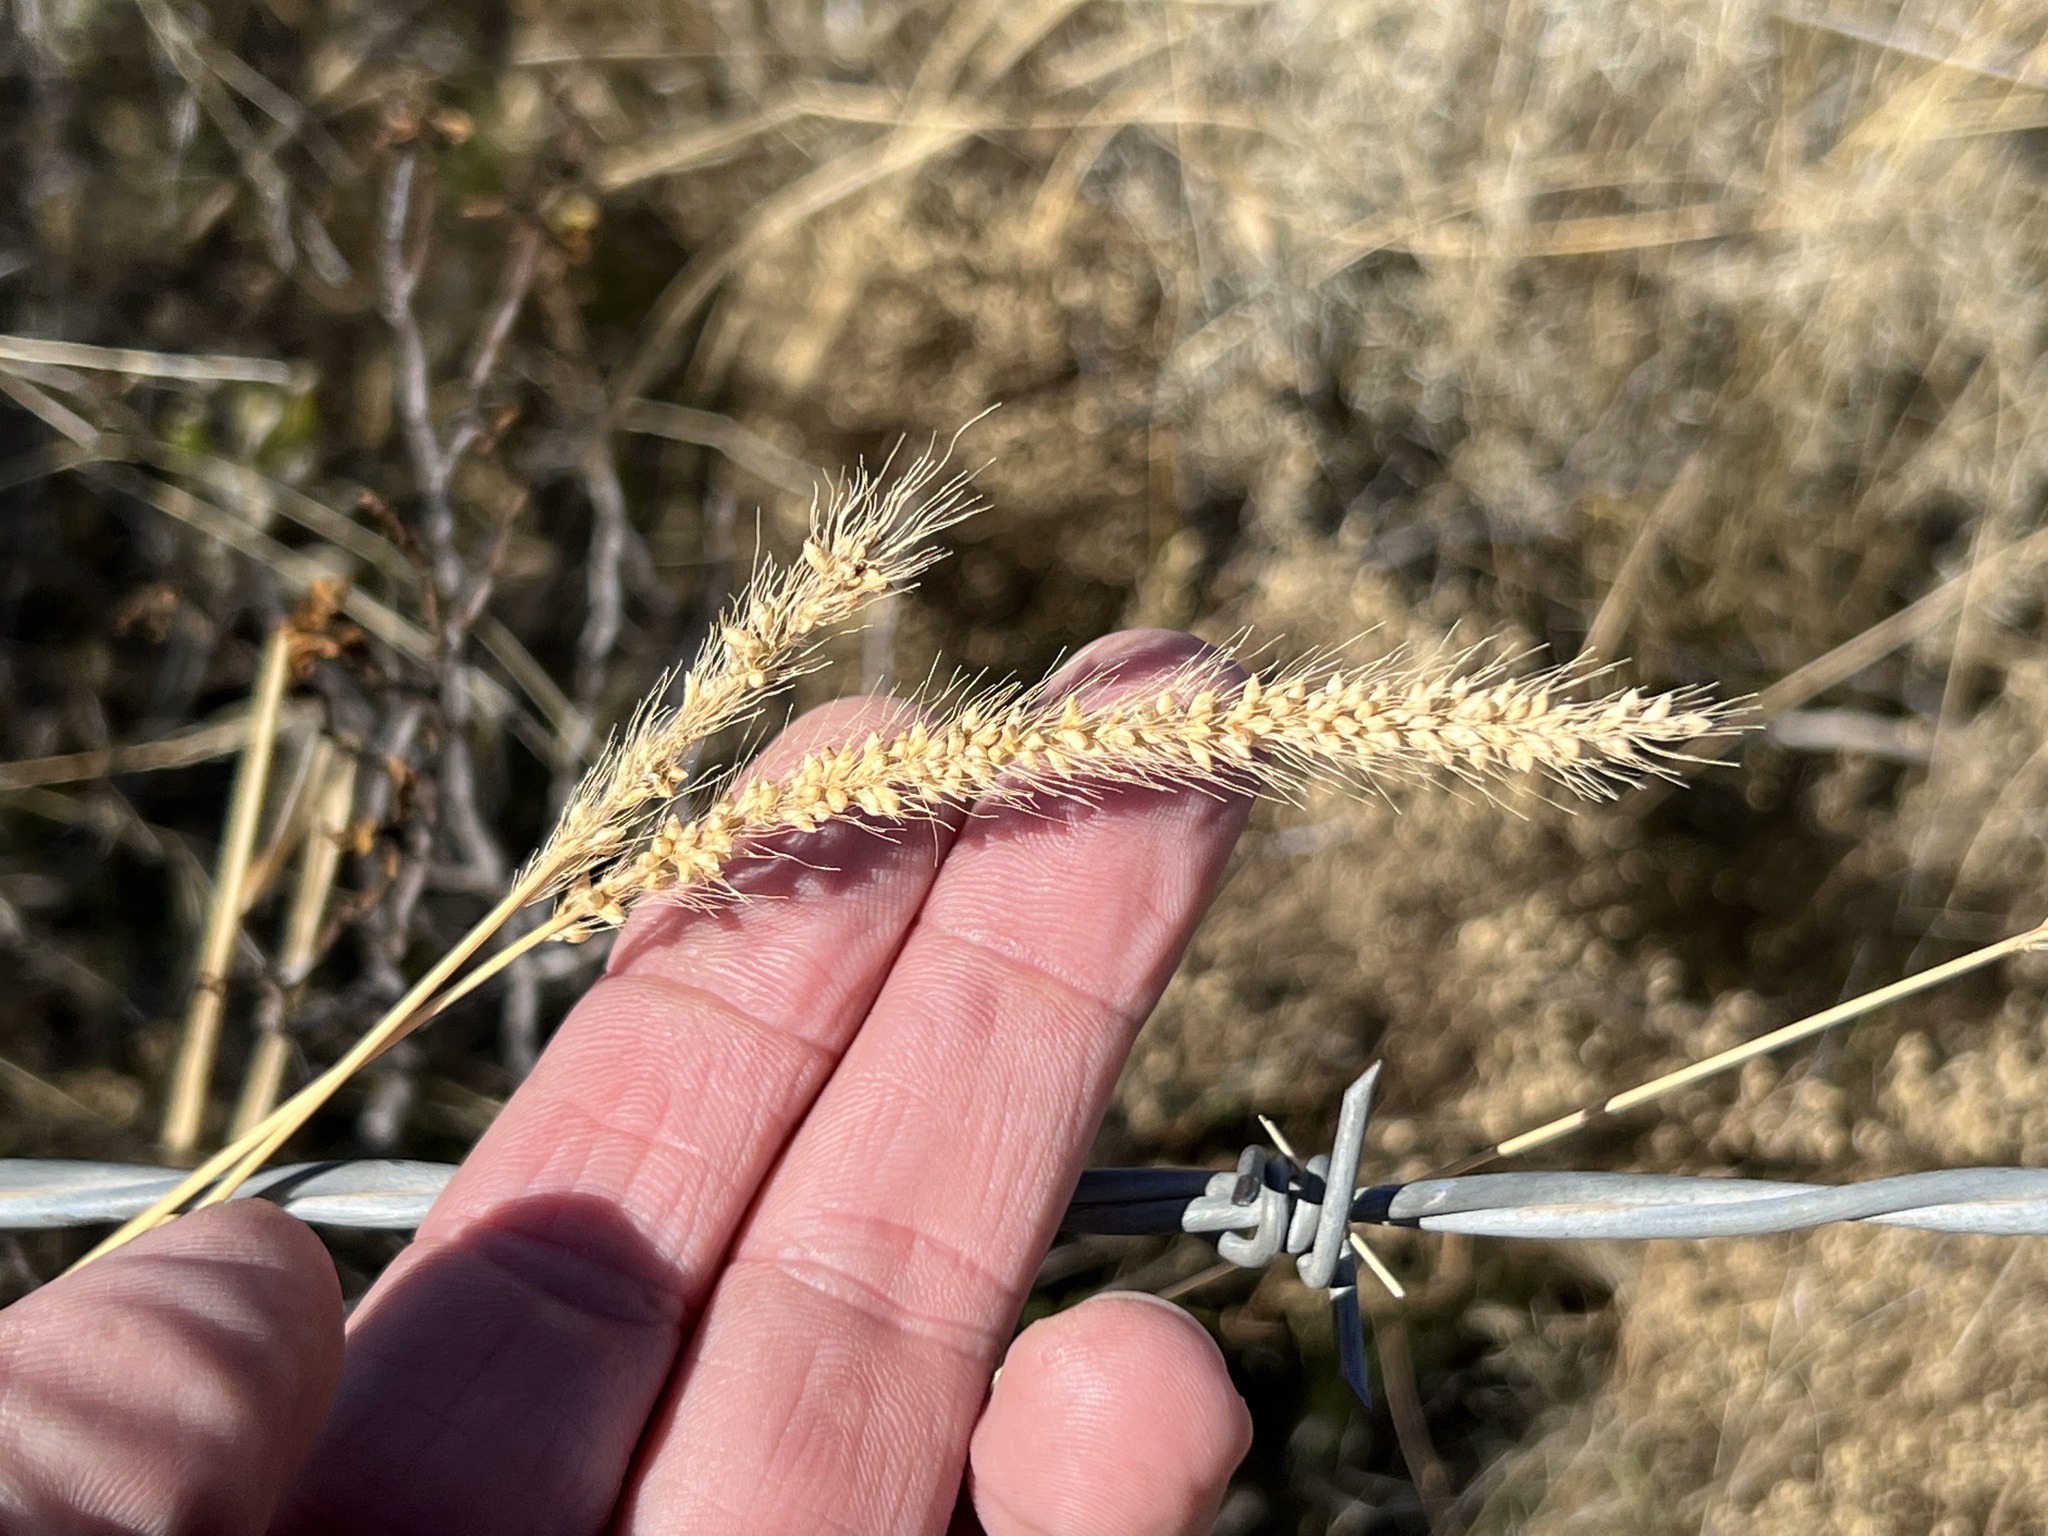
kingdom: Plantae
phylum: Tracheophyta
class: Liliopsida
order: Poales
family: Poaceae
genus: Setaria
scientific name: Setaria leucopila
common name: Plains bristle grass
